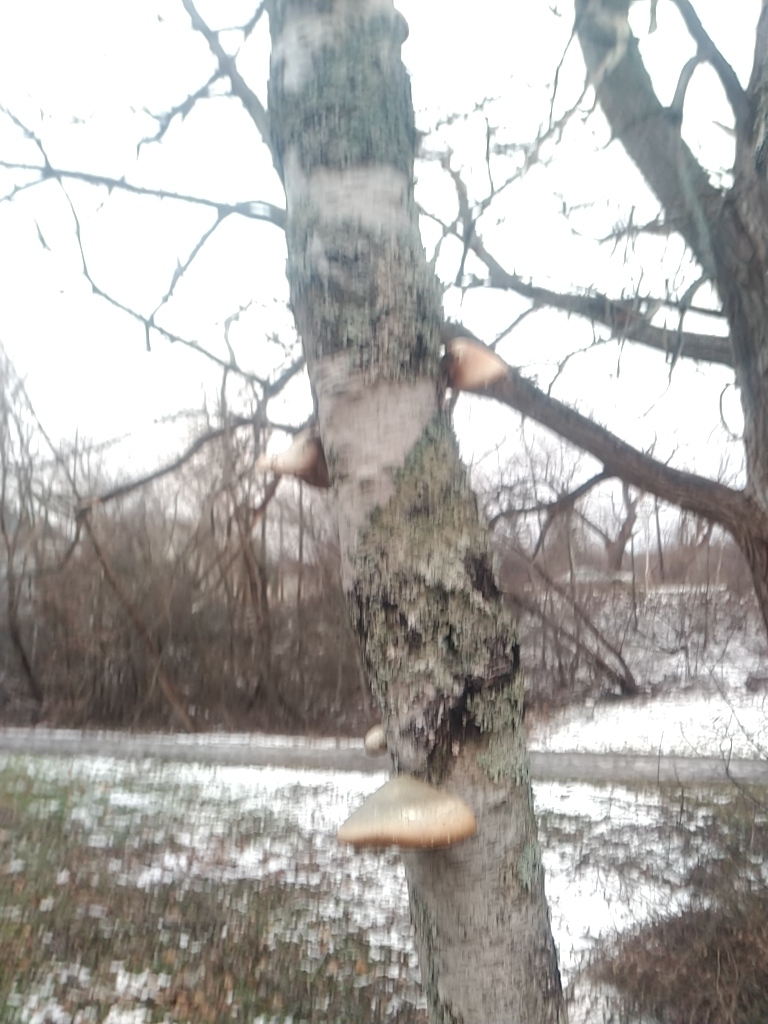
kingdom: Fungi
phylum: Basidiomycota
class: Agaricomycetes
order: Polyporales
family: Fomitopsidaceae
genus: Fomitopsis
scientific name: Fomitopsis betulina
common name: Birch polypore
